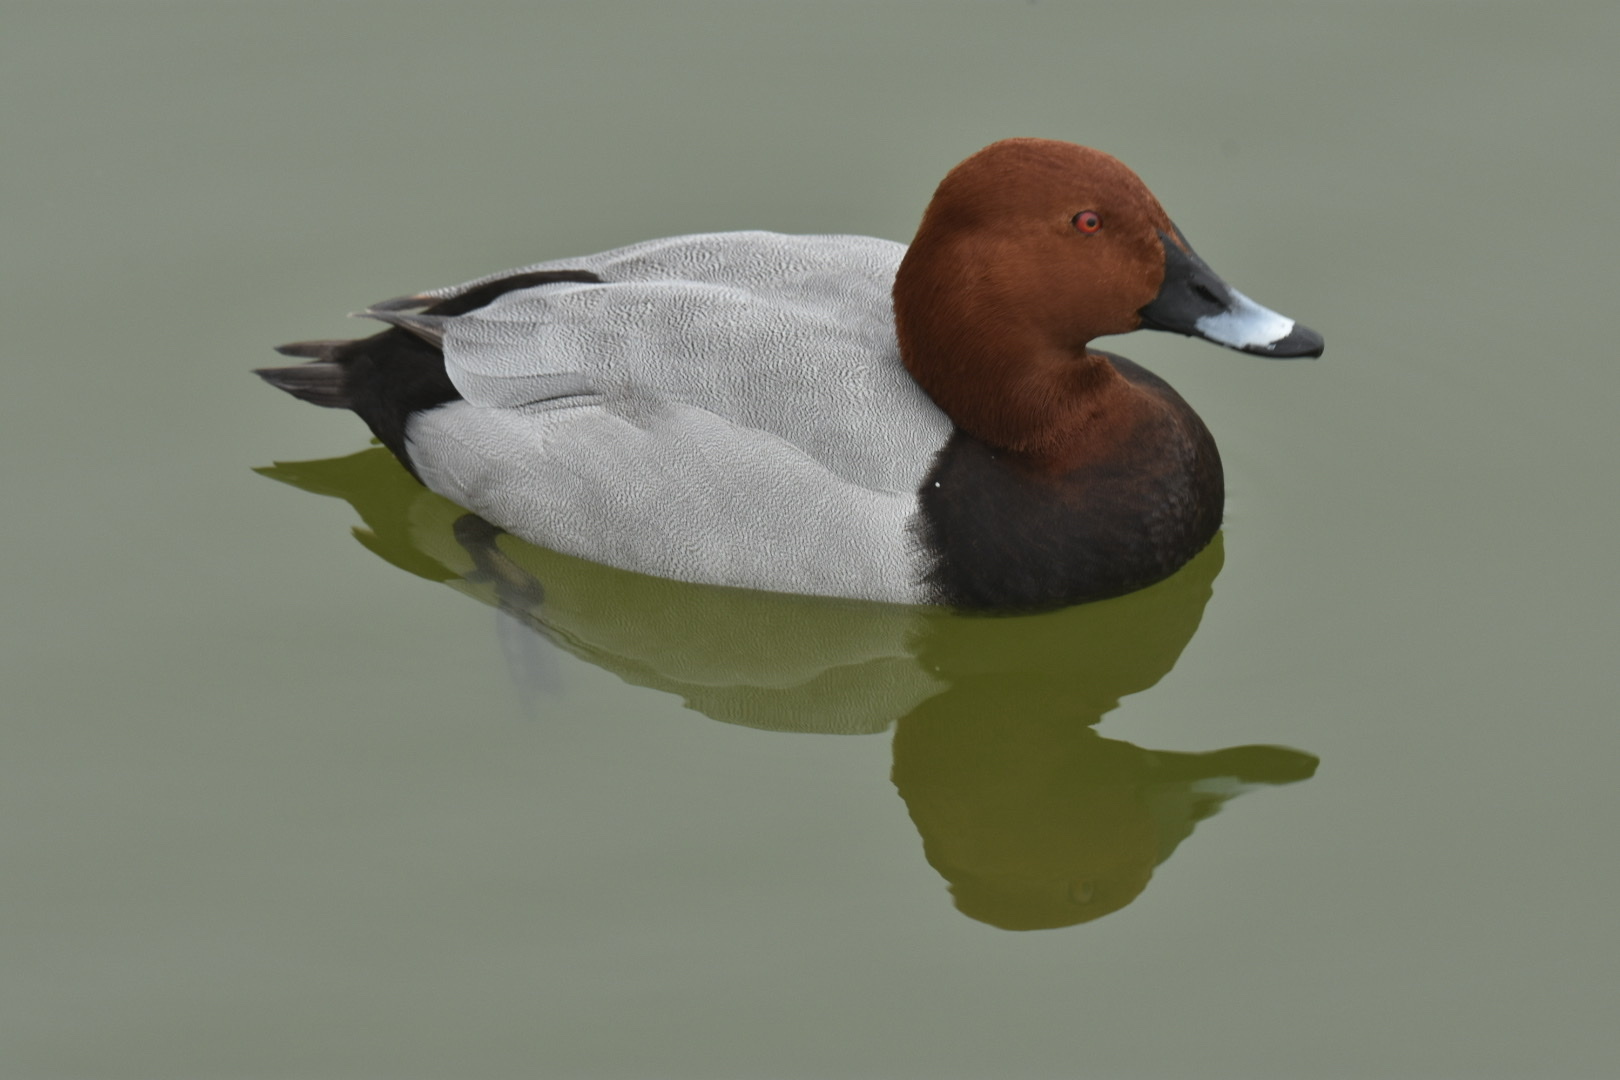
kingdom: Animalia
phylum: Chordata
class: Aves
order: Anseriformes
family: Anatidae
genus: Aythya
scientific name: Aythya ferina
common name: Common pochard
